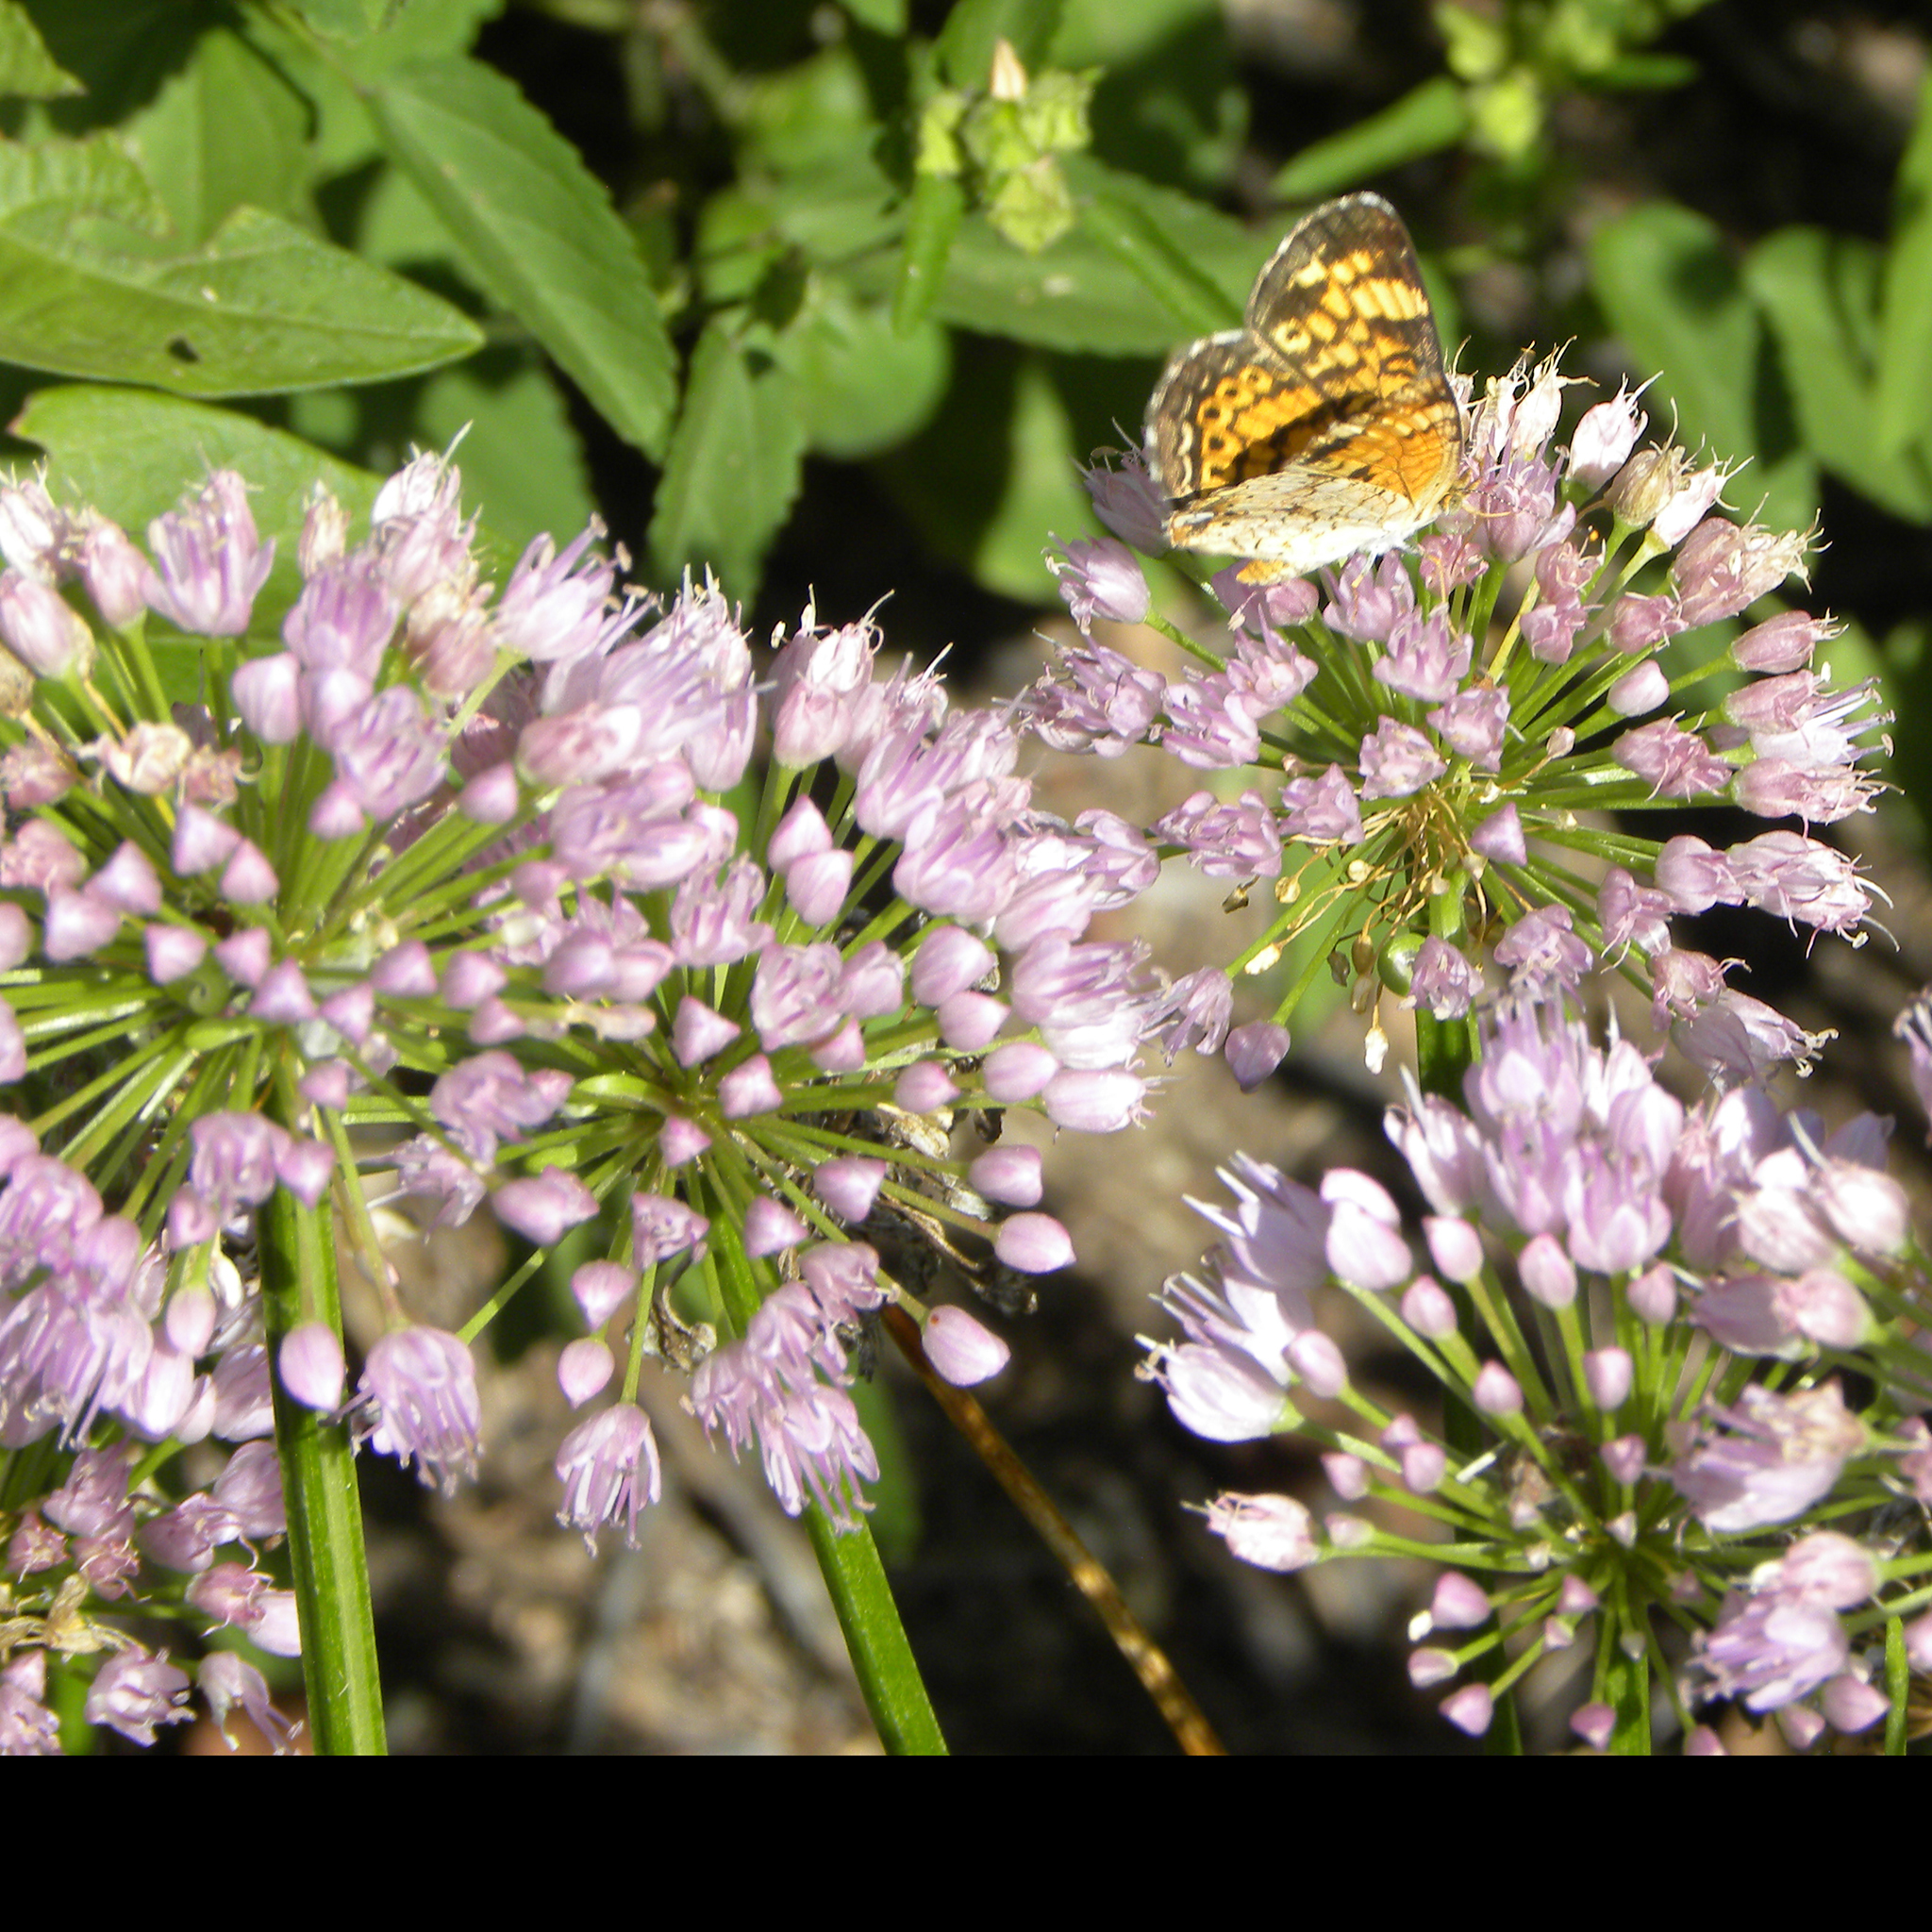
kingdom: Animalia
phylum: Arthropoda
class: Insecta
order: Lepidoptera
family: Nymphalidae
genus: Phyciodes
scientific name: Phyciodes tharos
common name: Pearl crescent
